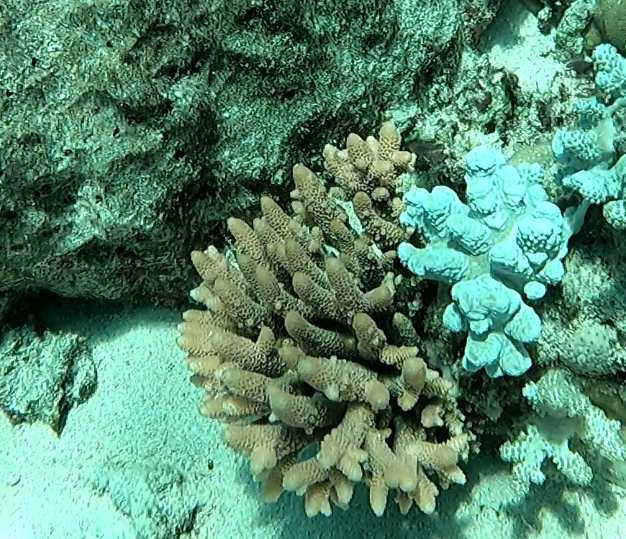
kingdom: Animalia
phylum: Cnidaria
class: Anthozoa
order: Scleractinia
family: Acroporidae
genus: Acropora
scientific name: Acropora spathulata
